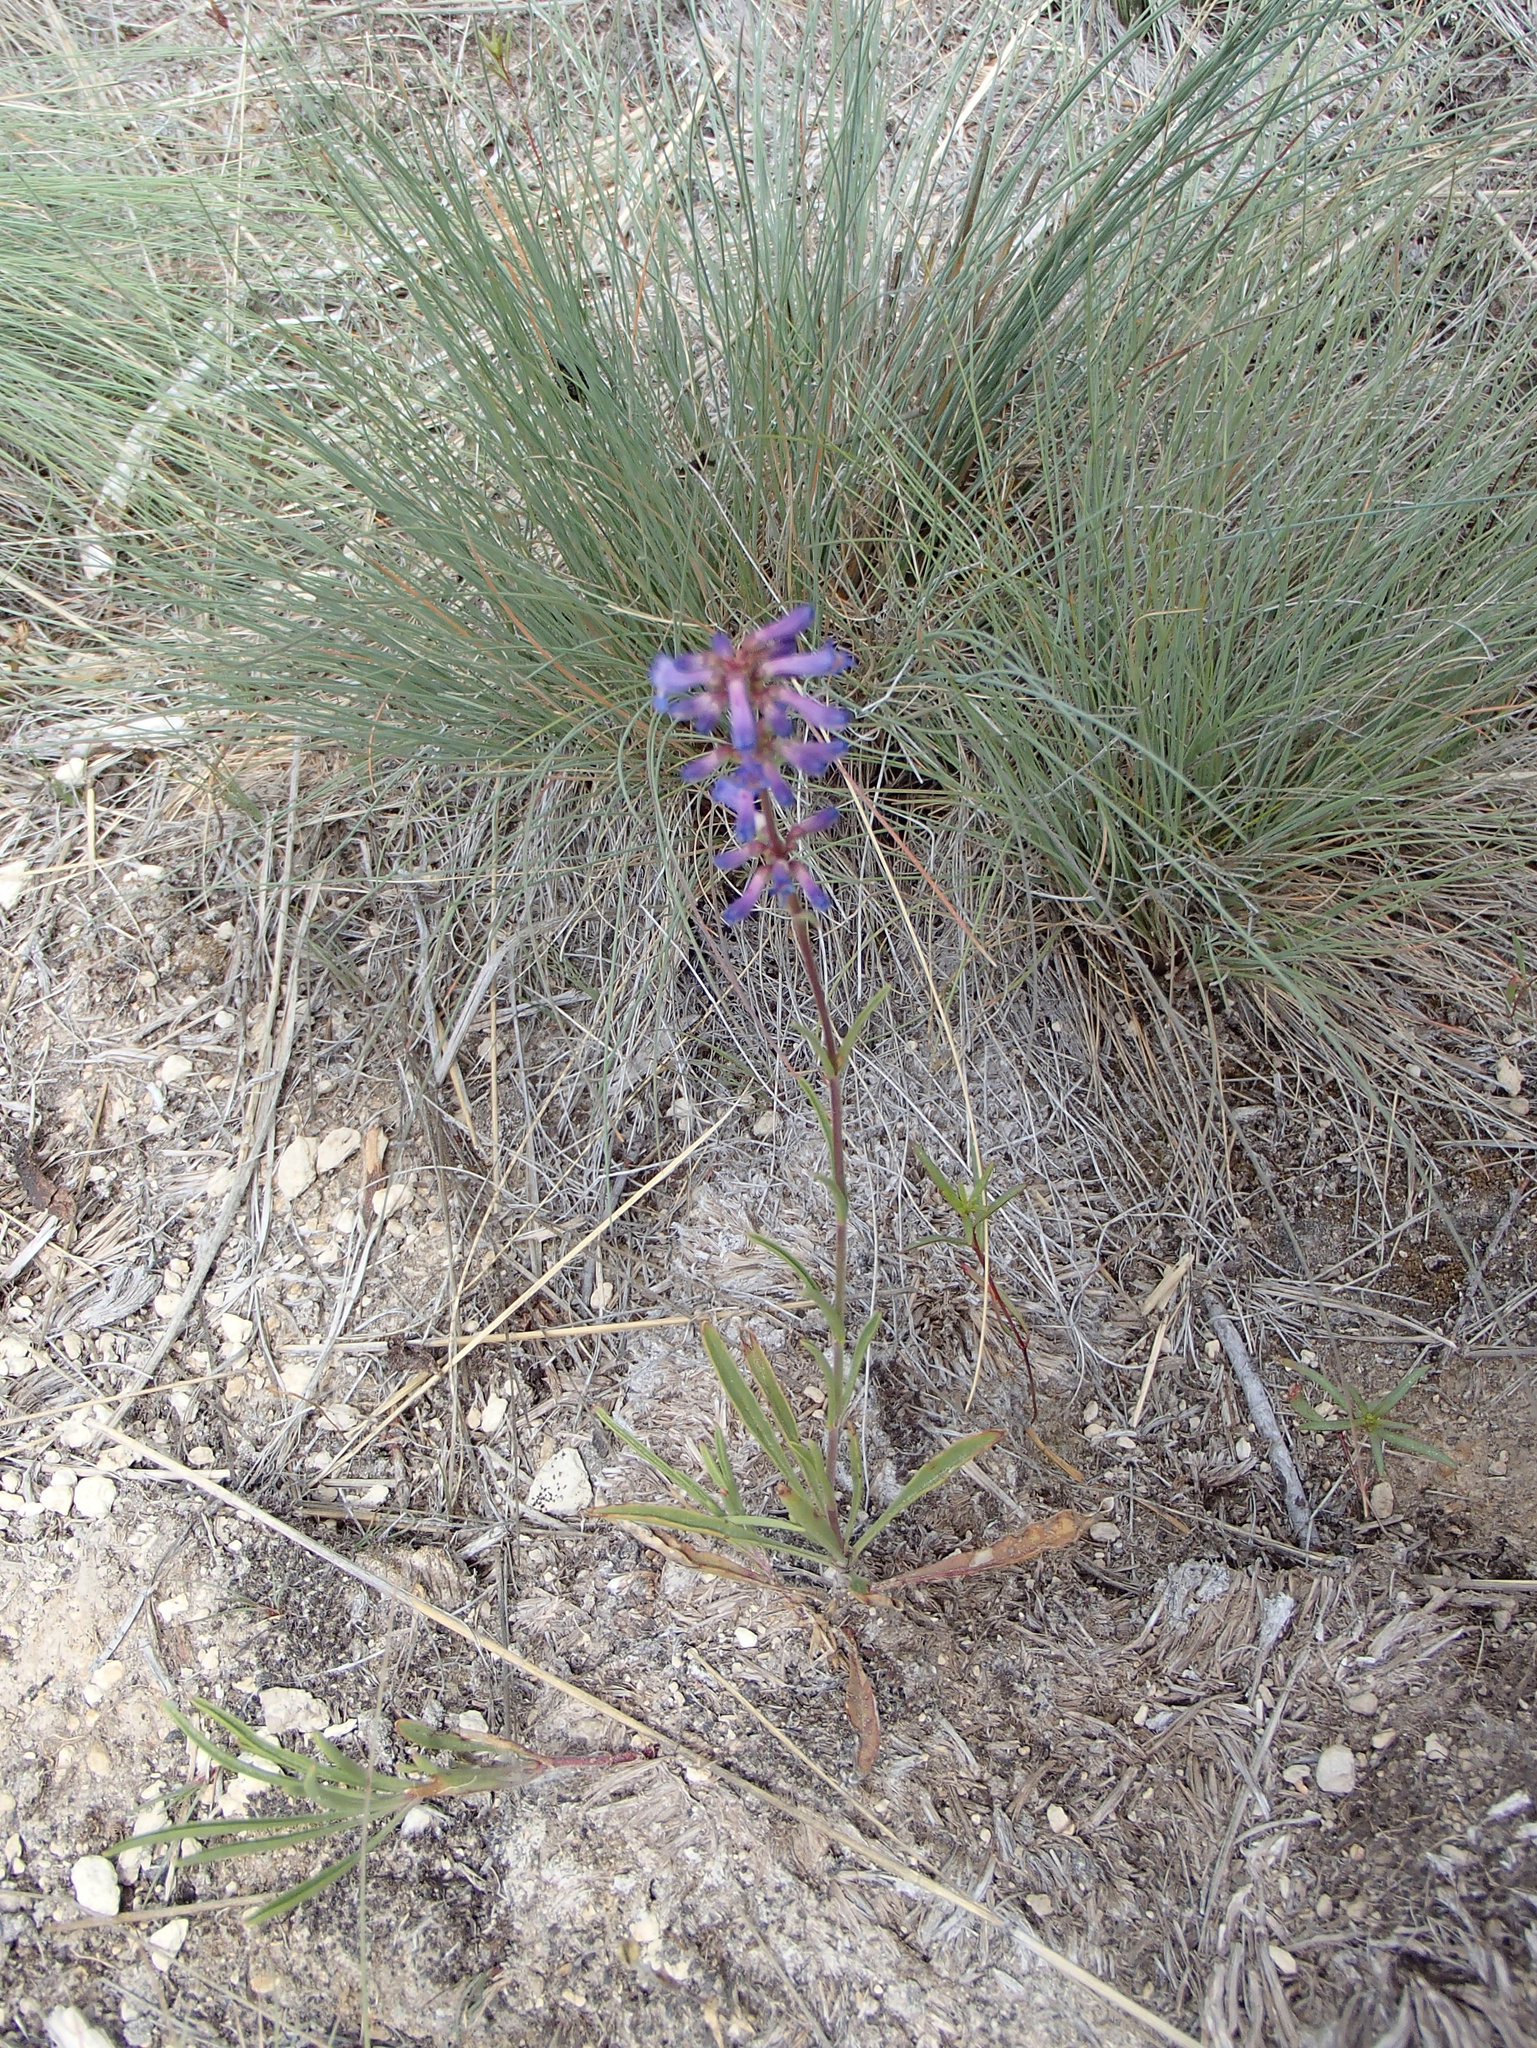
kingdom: Plantae
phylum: Tracheophyta
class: Magnoliopsida
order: Lamiales
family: Plantaginaceae
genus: Penstemon
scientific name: Penstemon cinicola
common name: Ash beardtongue
